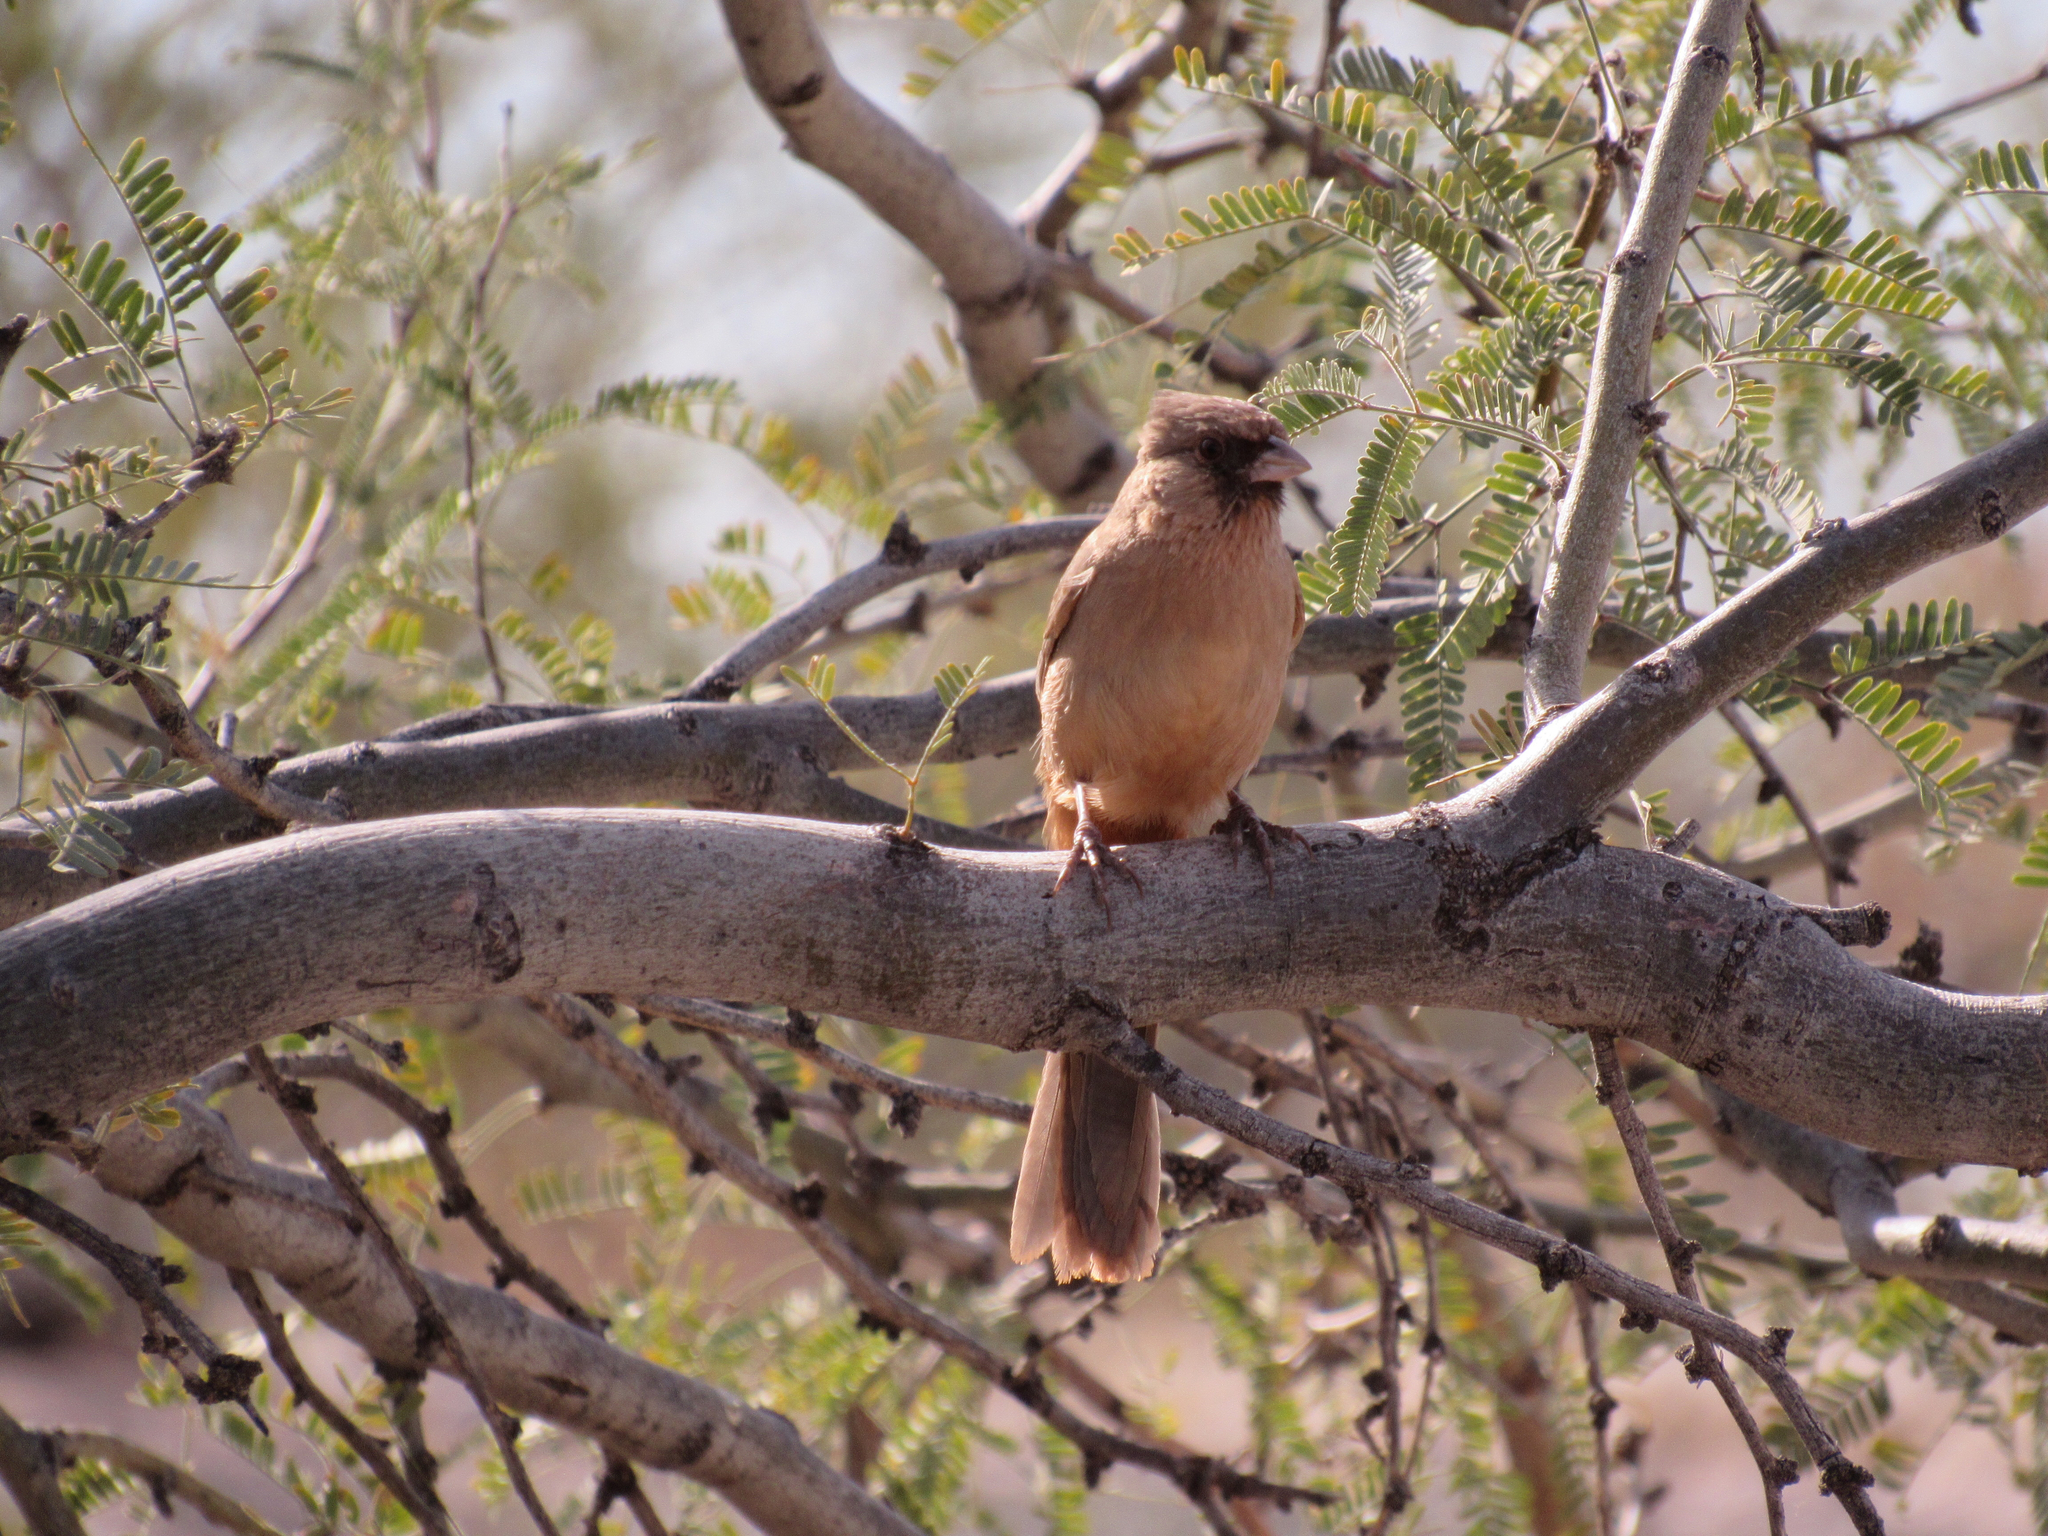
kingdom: Animalia
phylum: Chordata
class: Aves
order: Passeriformes
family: Passerellidae
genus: Melozone
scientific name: Melozone aberti
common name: Abert's towhee
